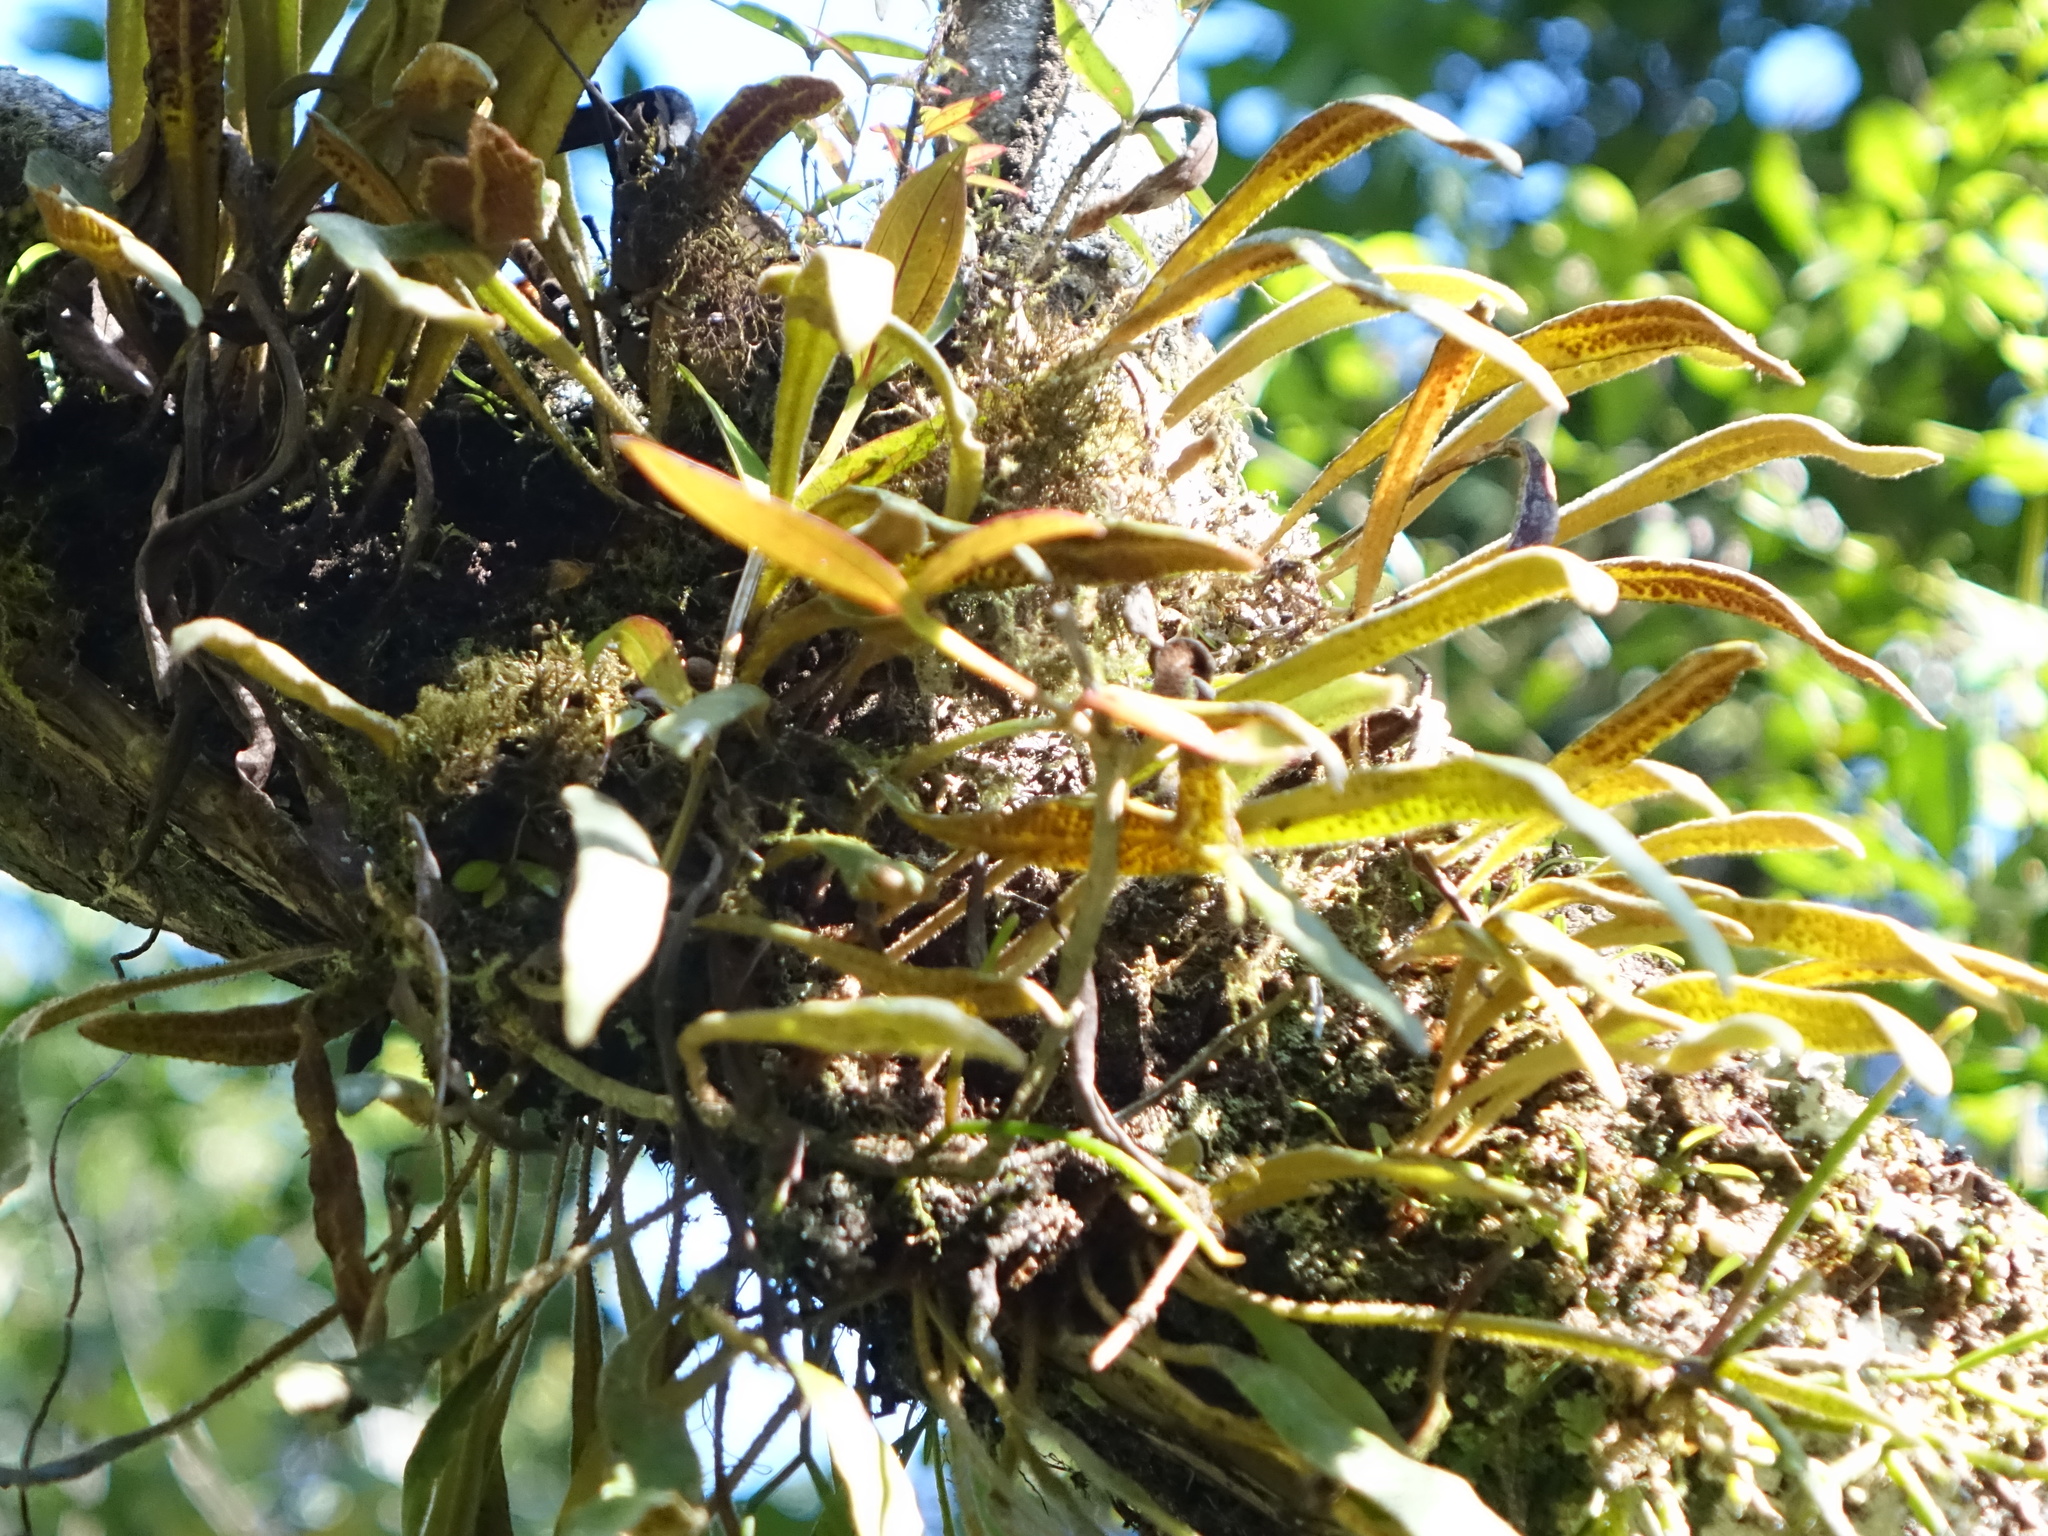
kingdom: Plantae
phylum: Tracheophyta
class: Polypodiopsida
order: Polypodiales
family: Polypodiaceae
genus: Pyrrosia
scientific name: Pyrrosia rhodesiana
